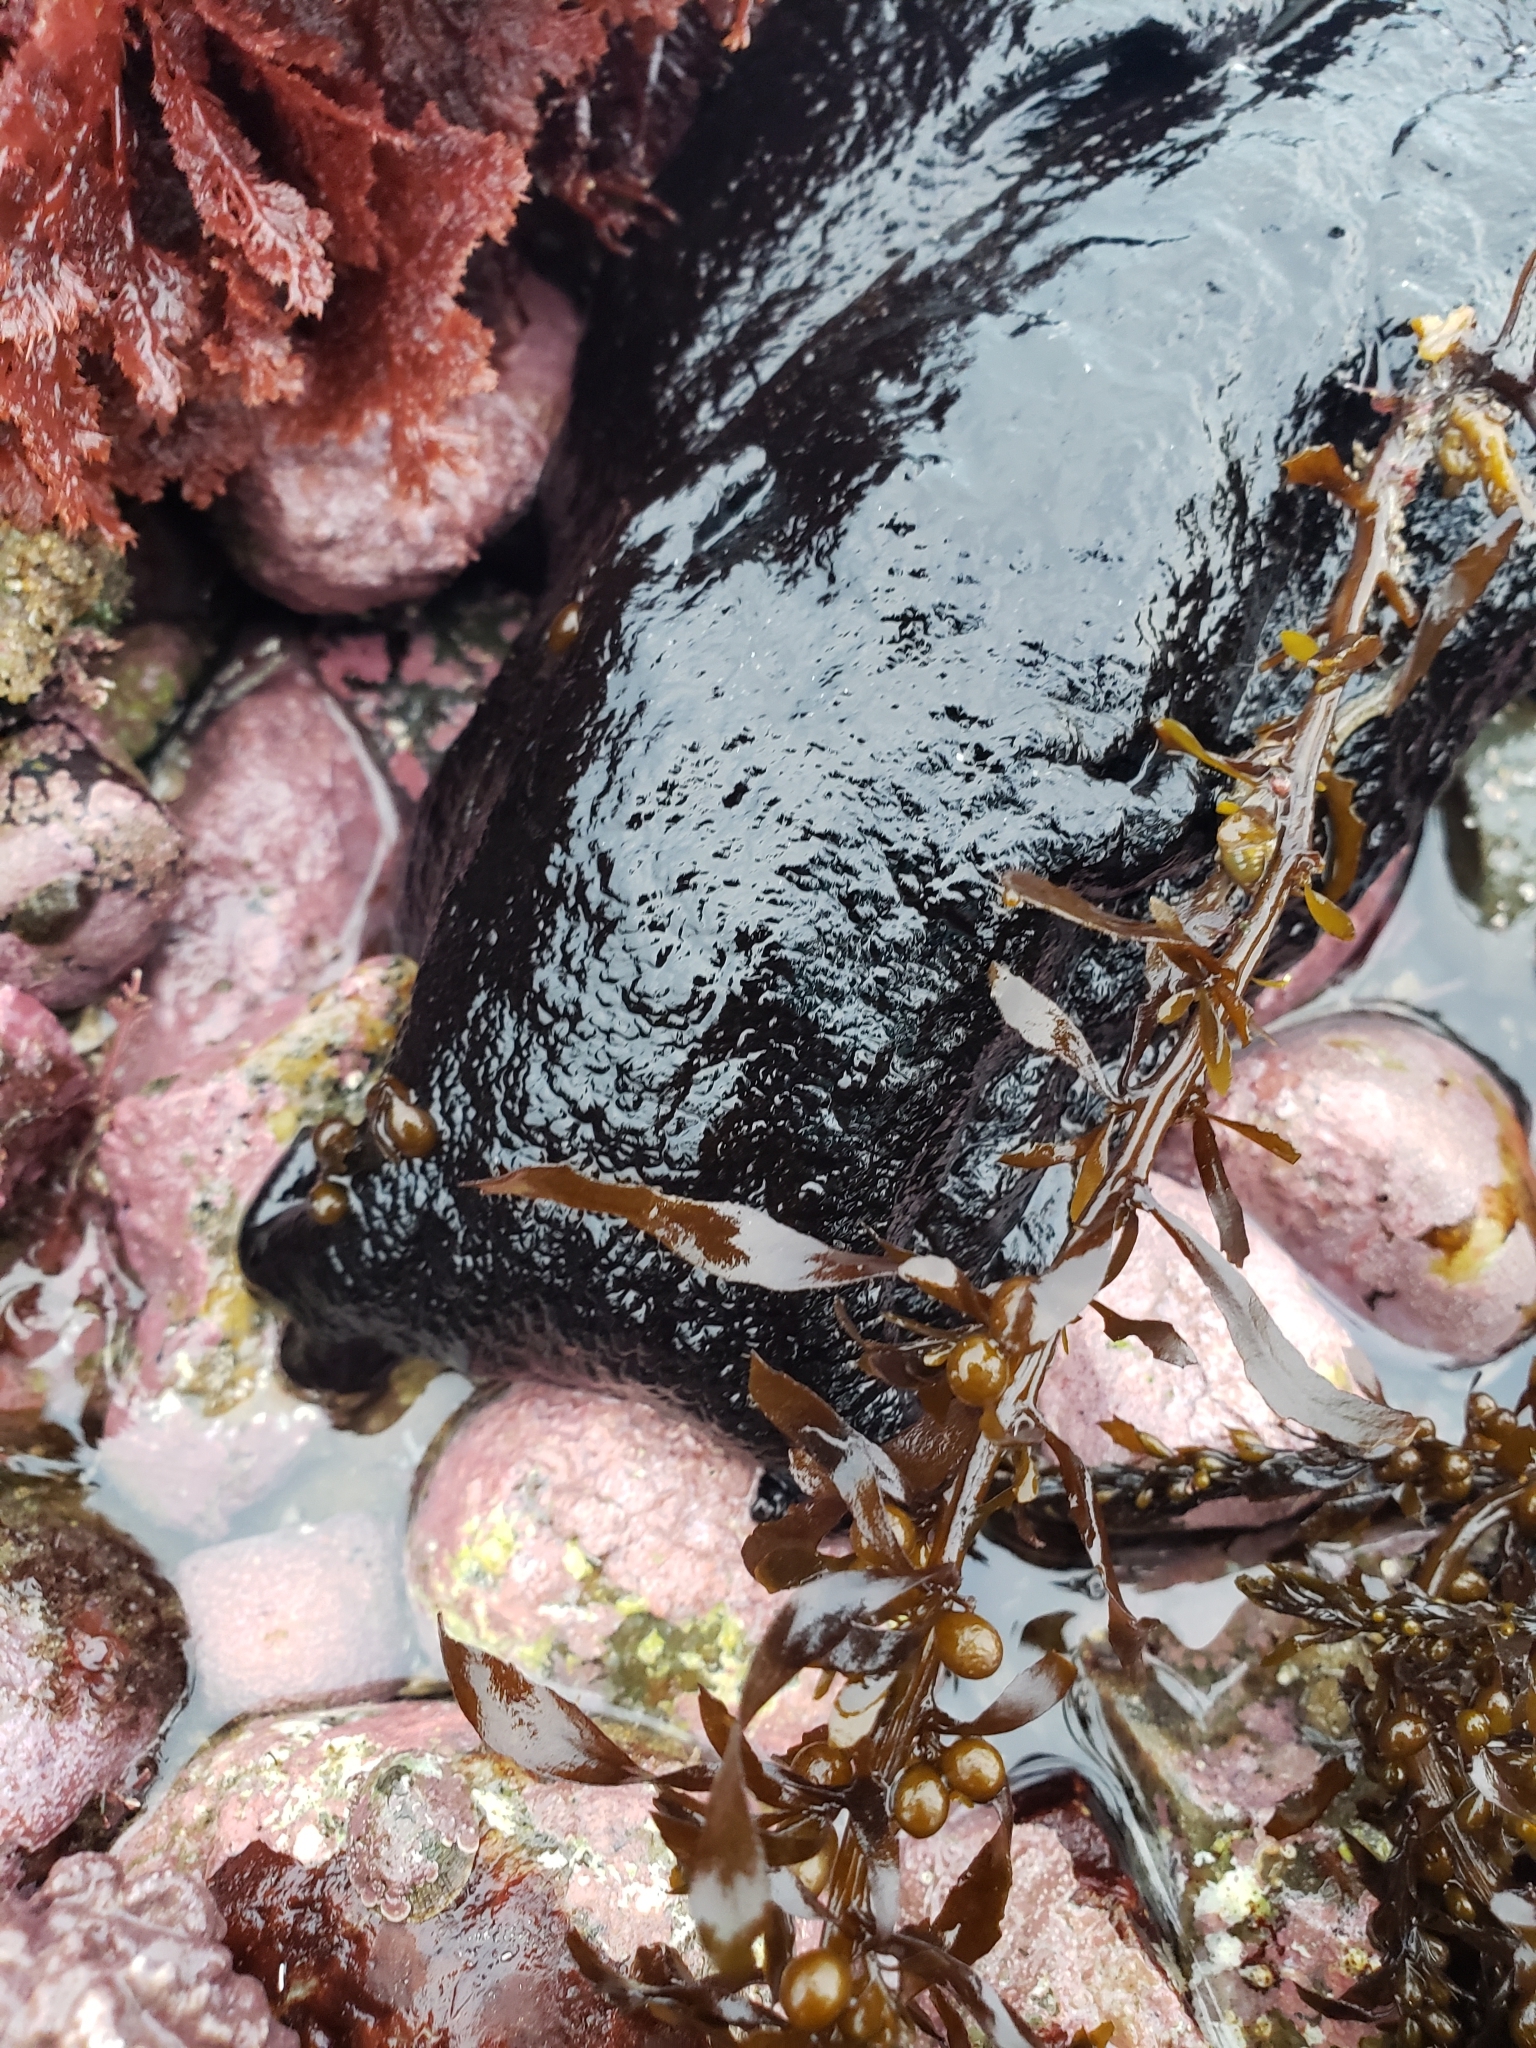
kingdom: Animalia
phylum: Mollusca
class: Gastropoda
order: Aplysiida
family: Aplysiidae
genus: Aplysia
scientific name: Aplysia vaccaria
